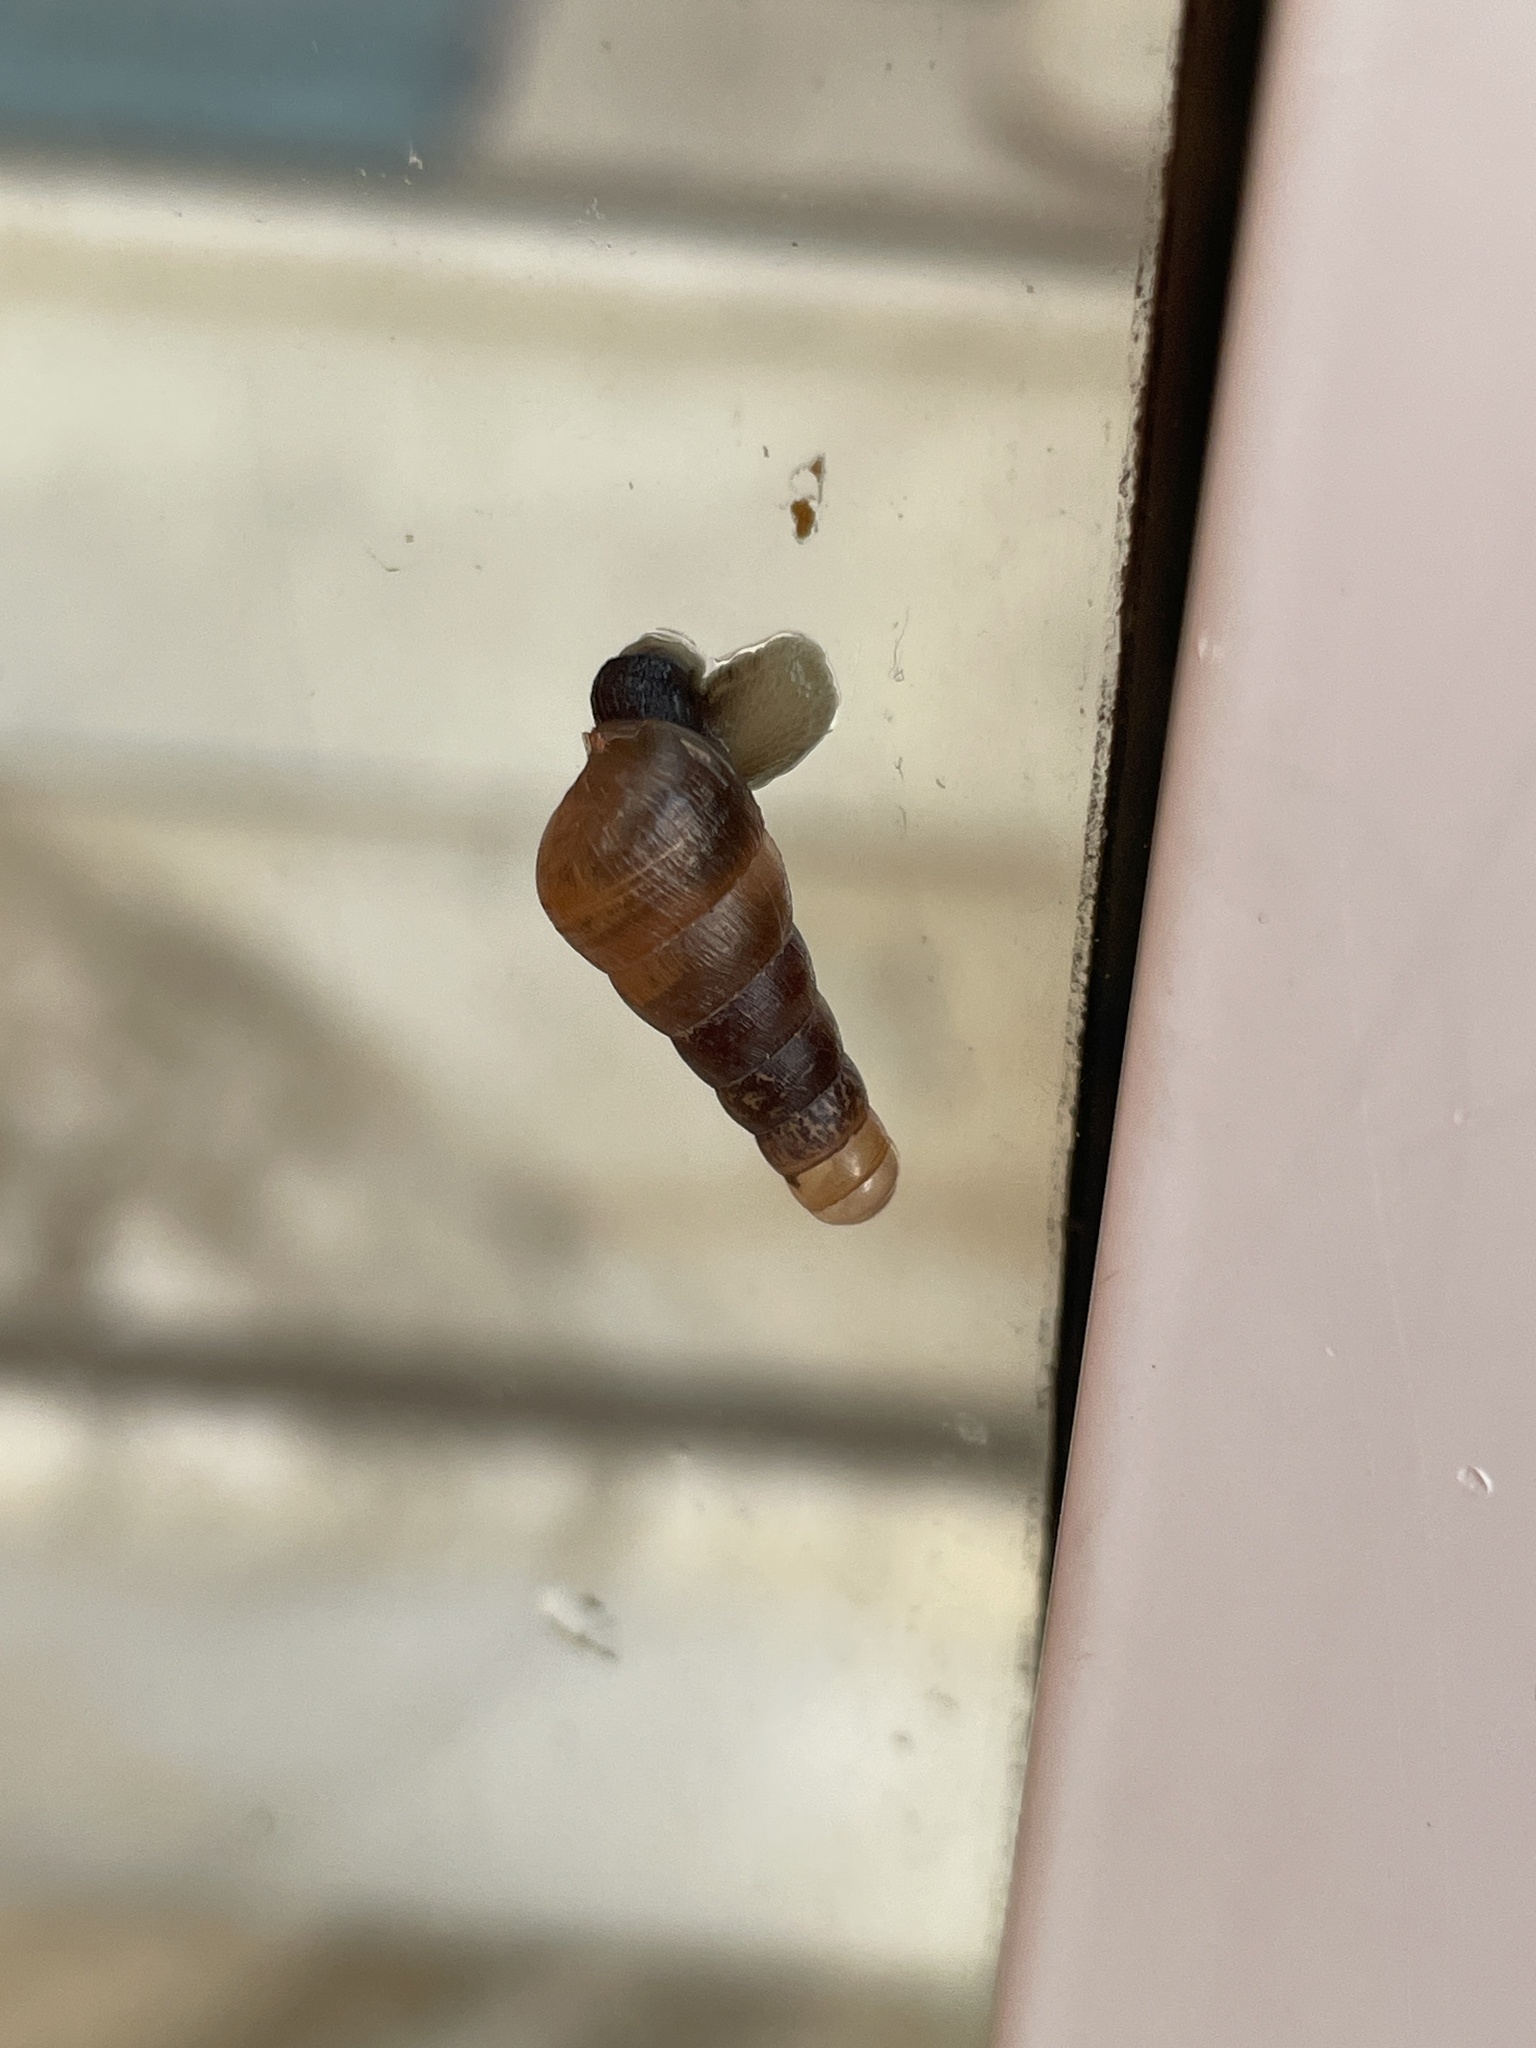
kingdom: Animalia
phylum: Mollusca
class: Gastropoda
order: Stylommatophora
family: Achatinidae
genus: Rumina
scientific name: Rumina decollata
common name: Decollate snail
